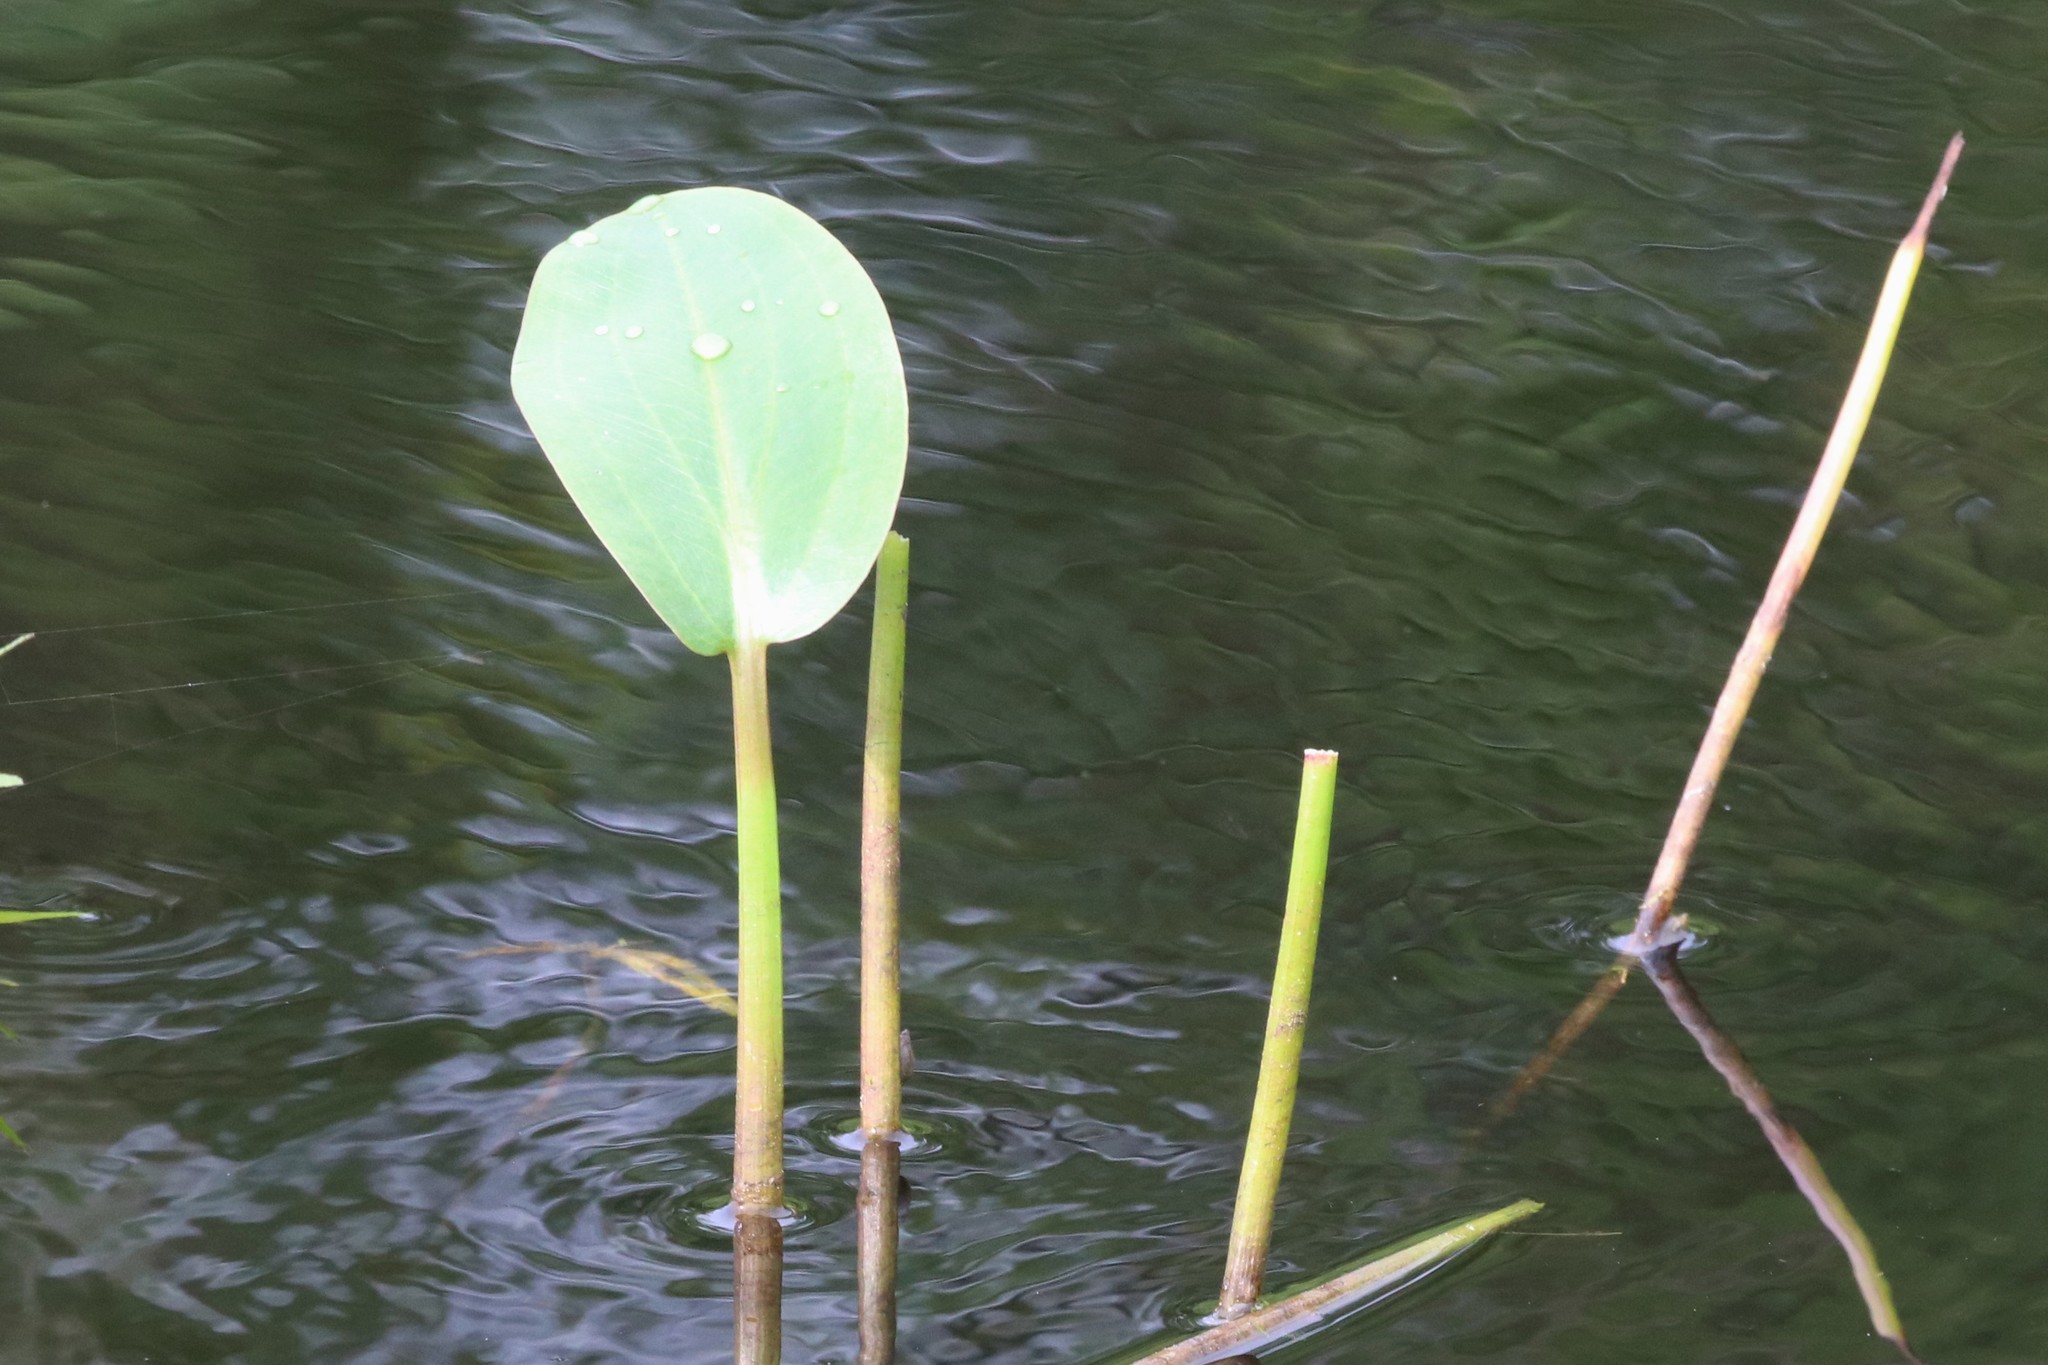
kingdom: Plantae
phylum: Tracheophyta
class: Liliopsida
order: Alismatales
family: Alismataceae
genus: Alisma
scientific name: Alisma triviale
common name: Northern water-plantain
